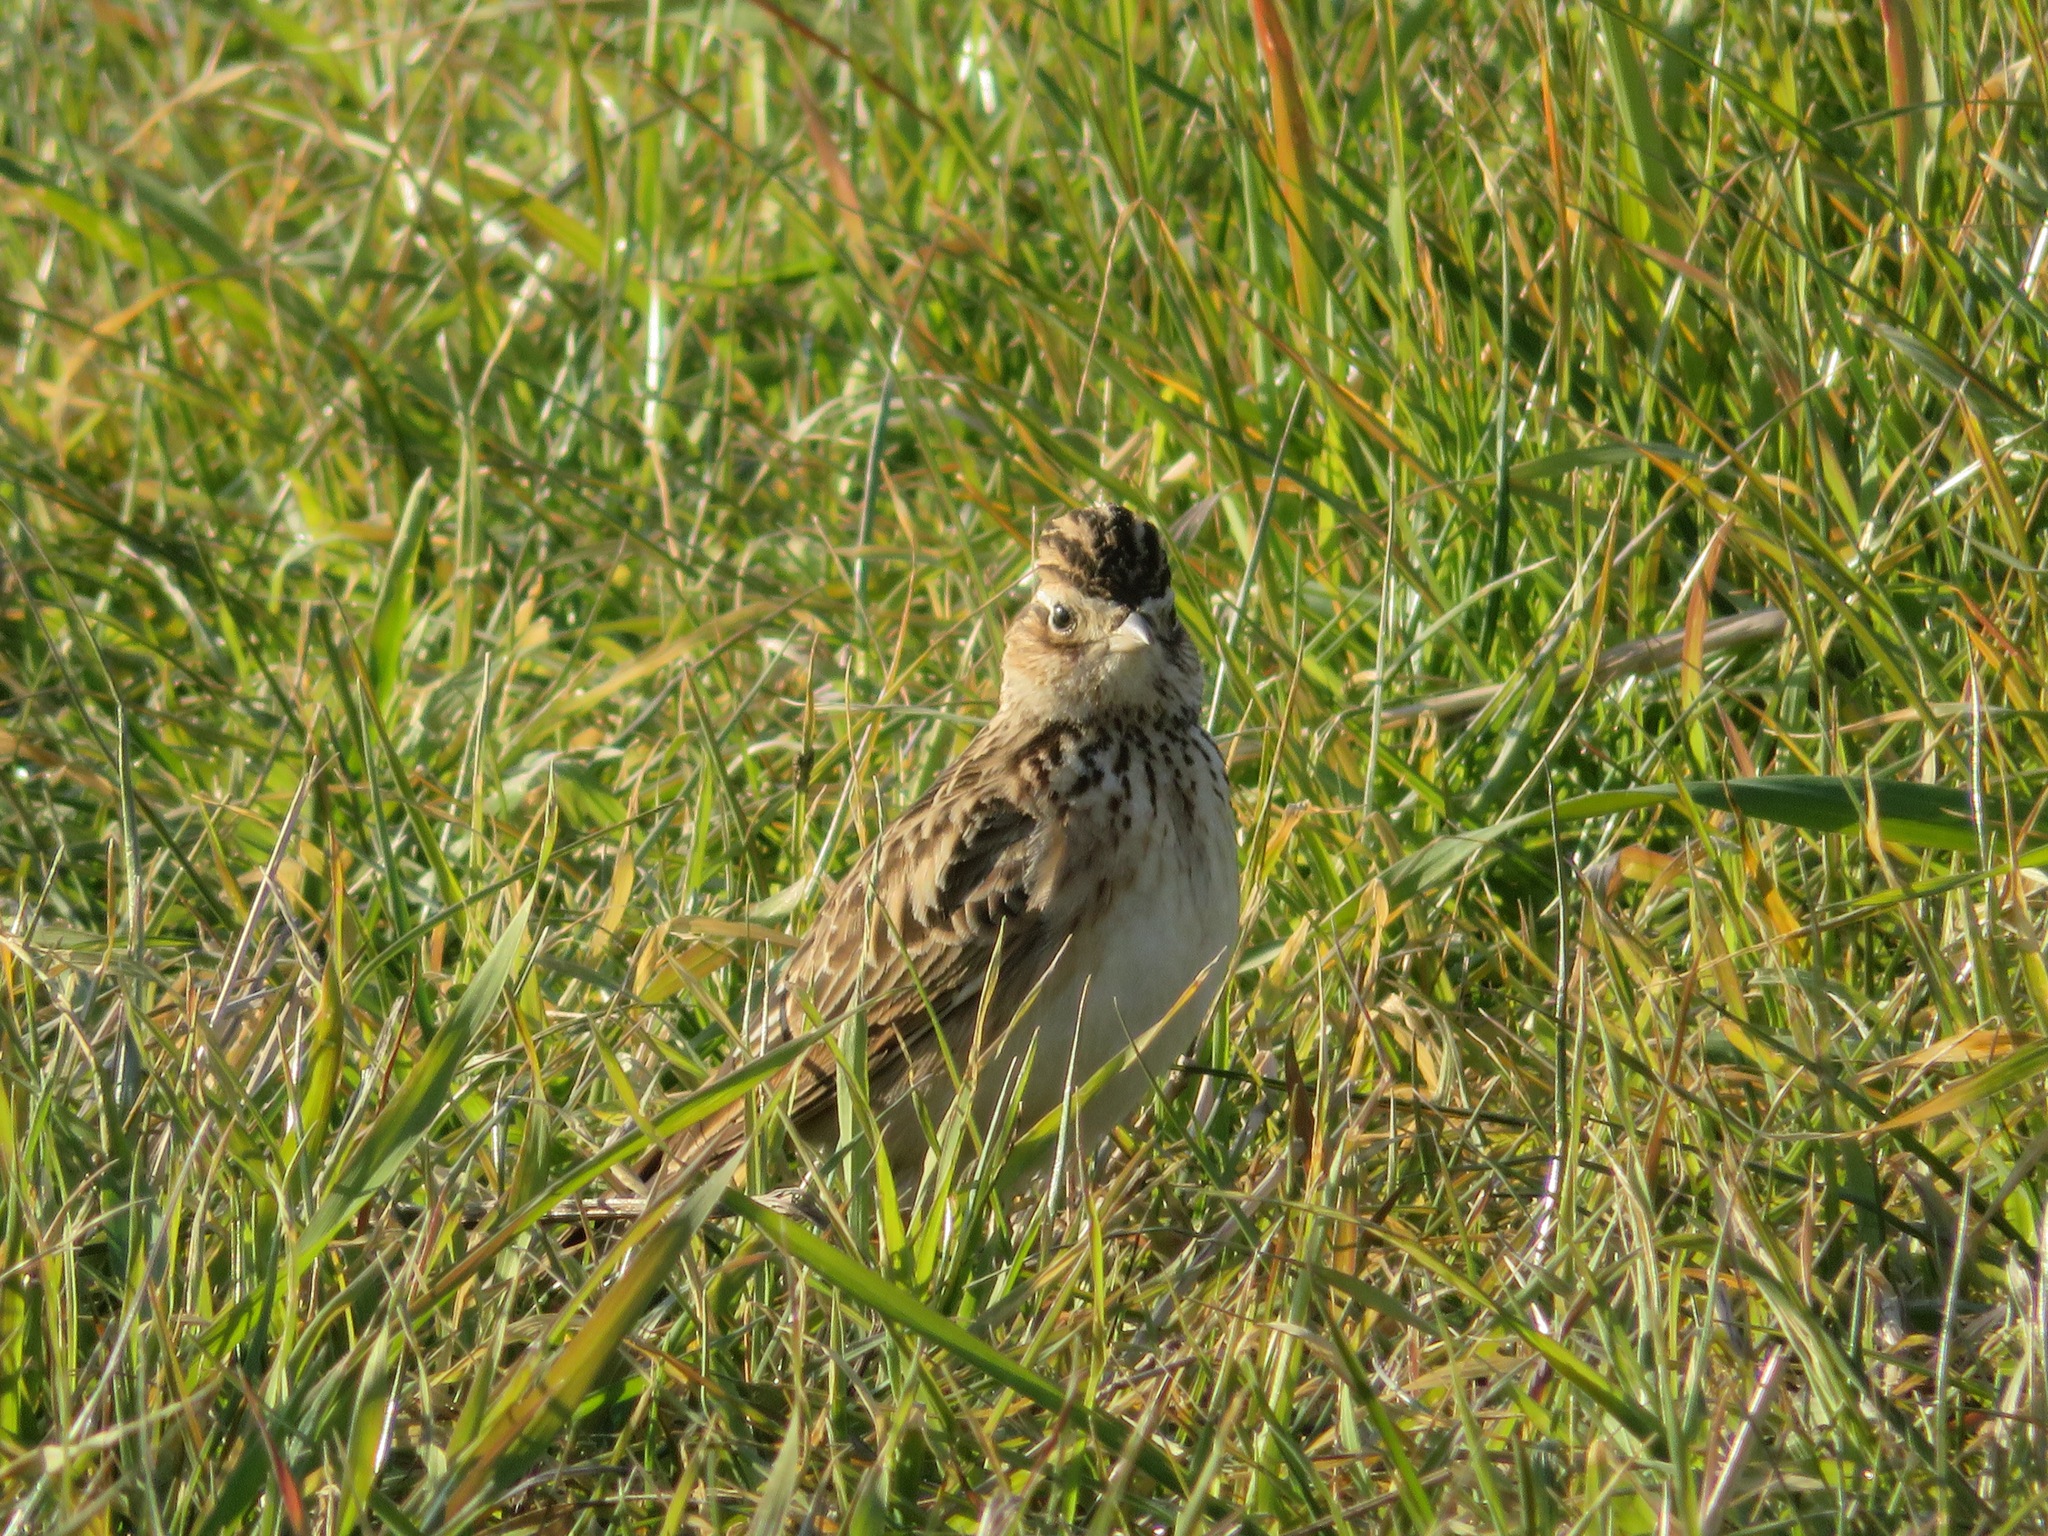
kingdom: Animalia
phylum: Chordata
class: Aves
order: Passeriformes
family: Alaudidae
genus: Alauda
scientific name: Alauda arvensis
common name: Eurasian skylark
